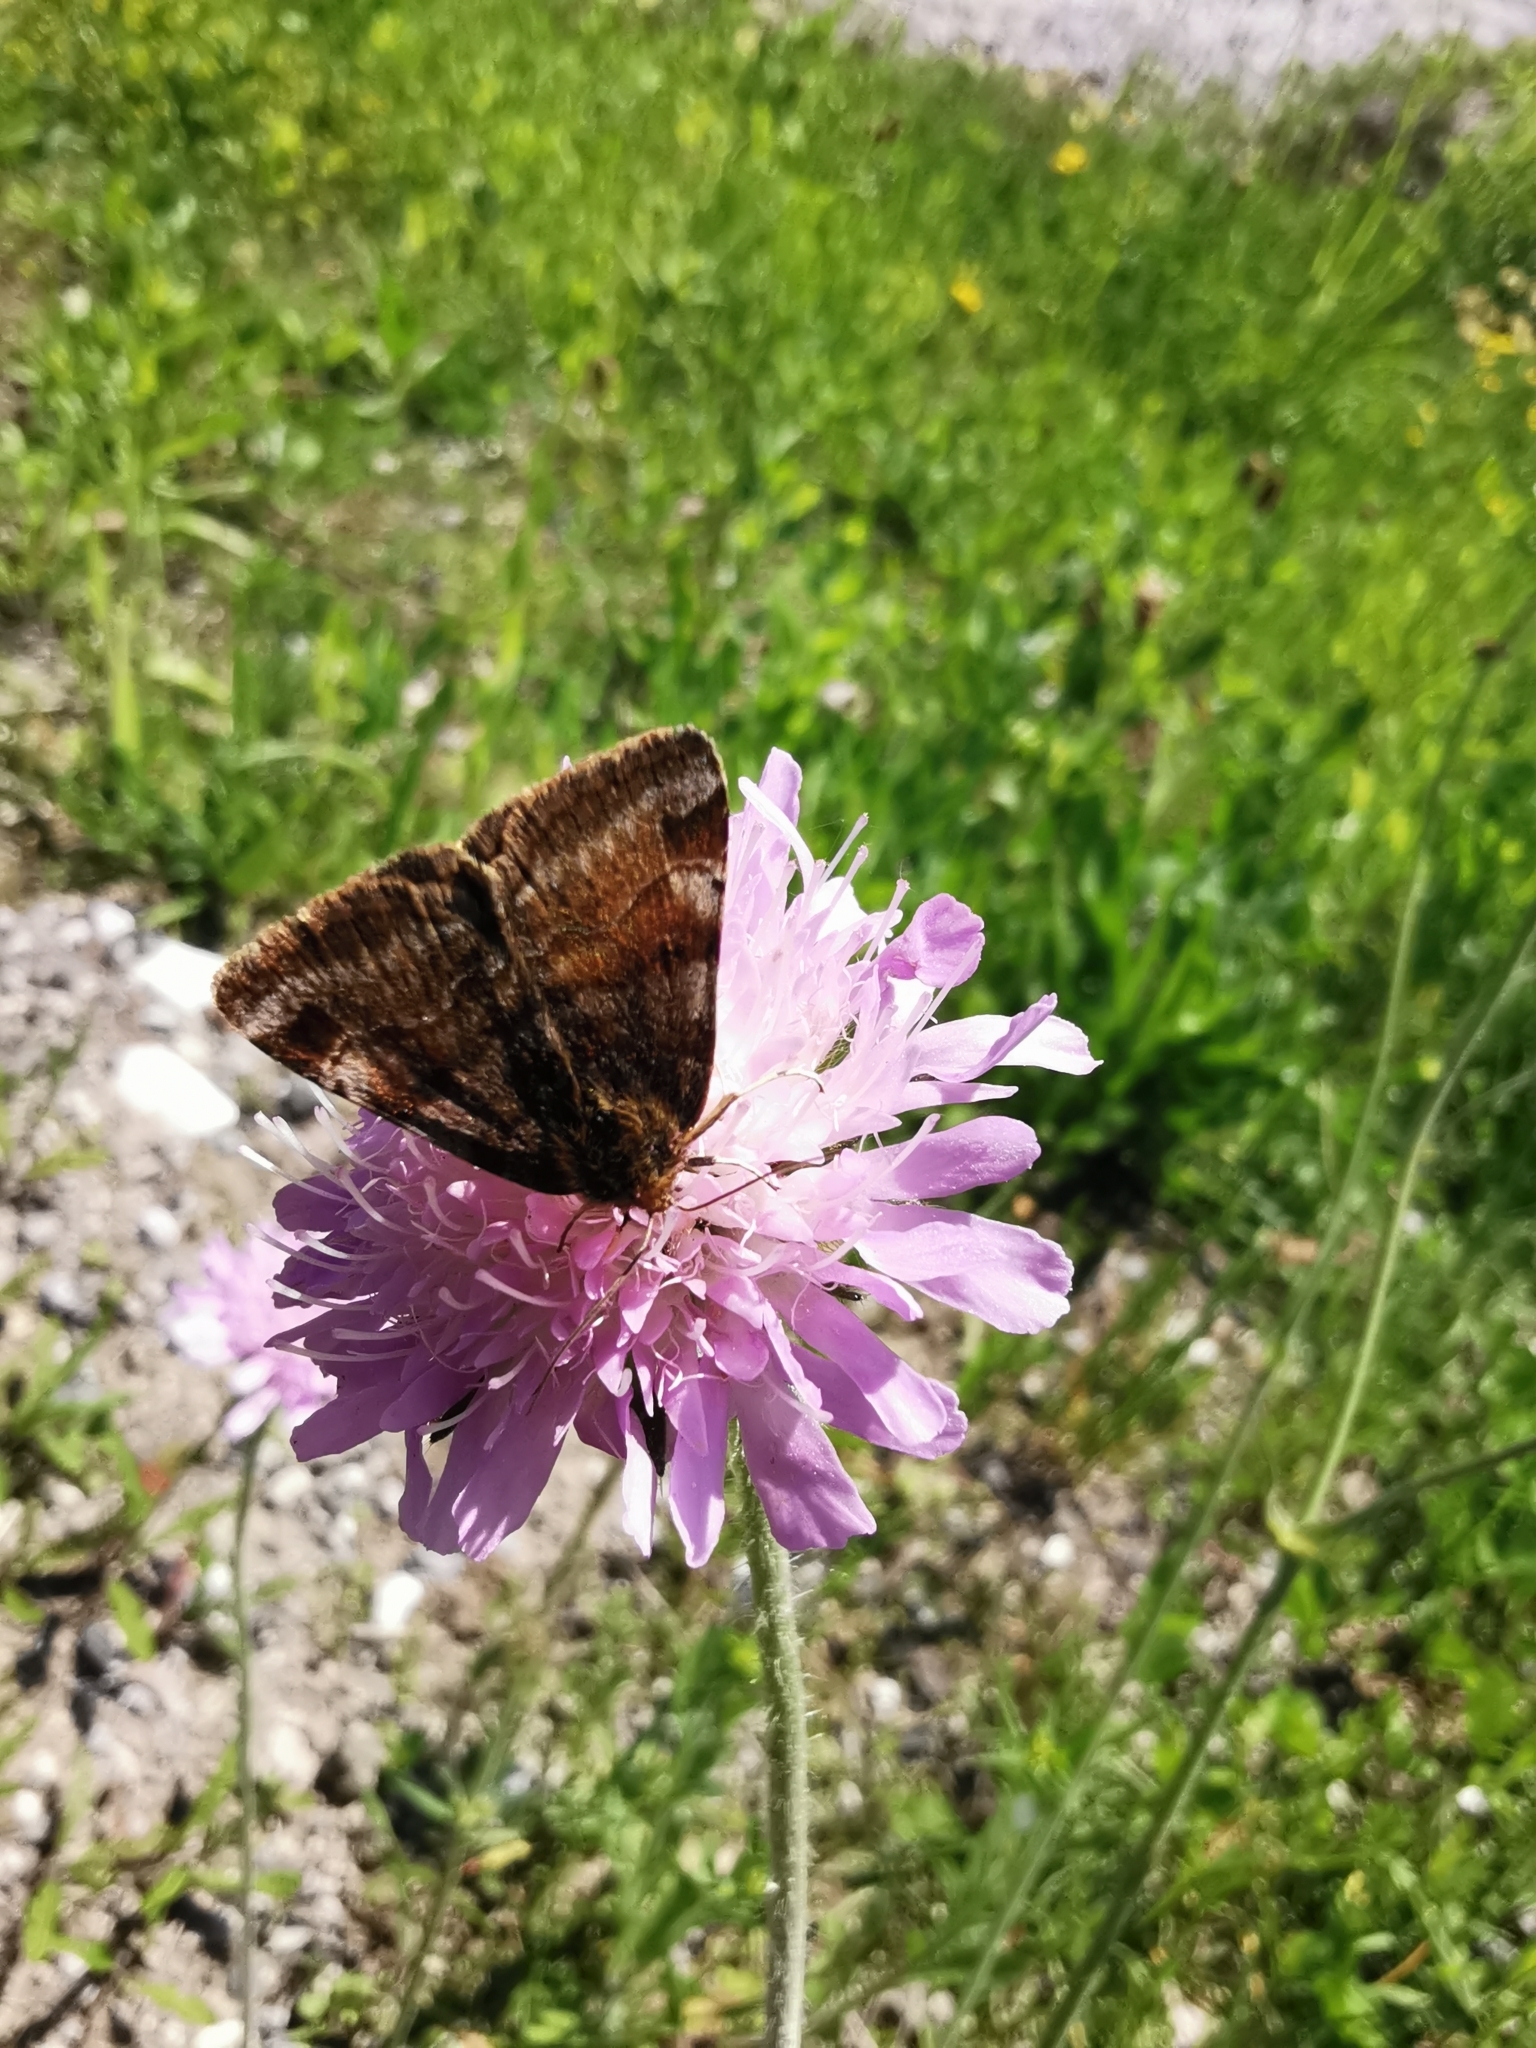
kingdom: Animalia
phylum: Arthropoda
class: Insecta
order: Lepidoptera
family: Erebidae
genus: Euclidia
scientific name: Euclidia glyphica
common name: Burnet companion
